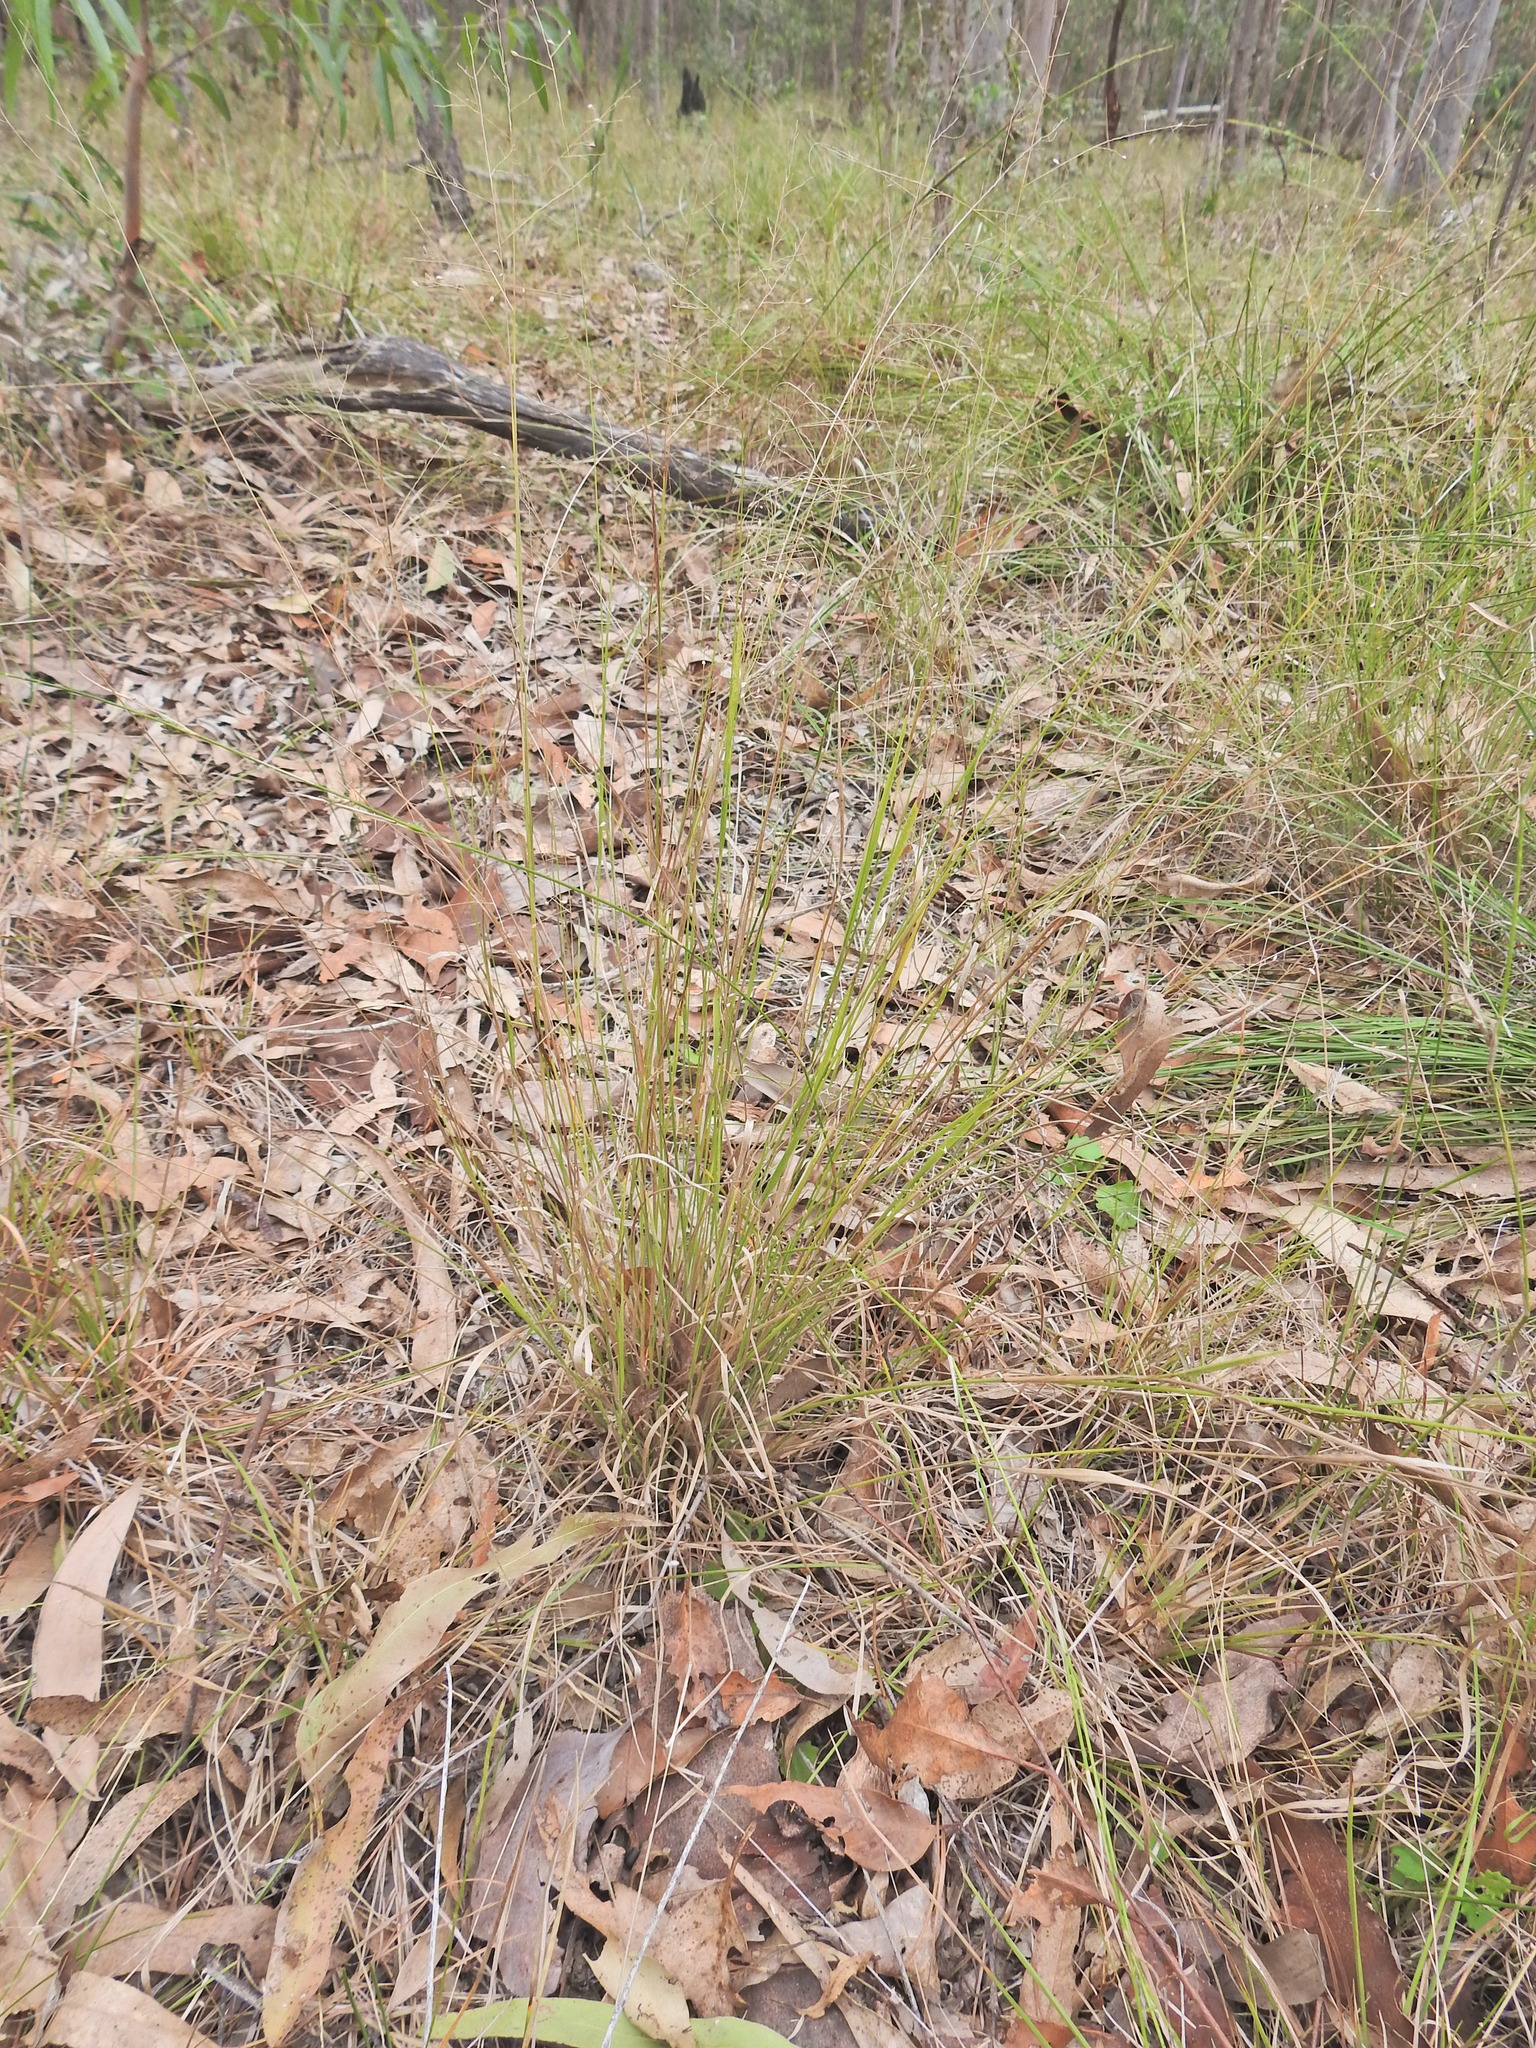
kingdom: Plantae
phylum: Tracheophyta
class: Liliopsida
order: Poales
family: Poaceae
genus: Panicum
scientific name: Panicum effusum
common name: Hairy panic grass
